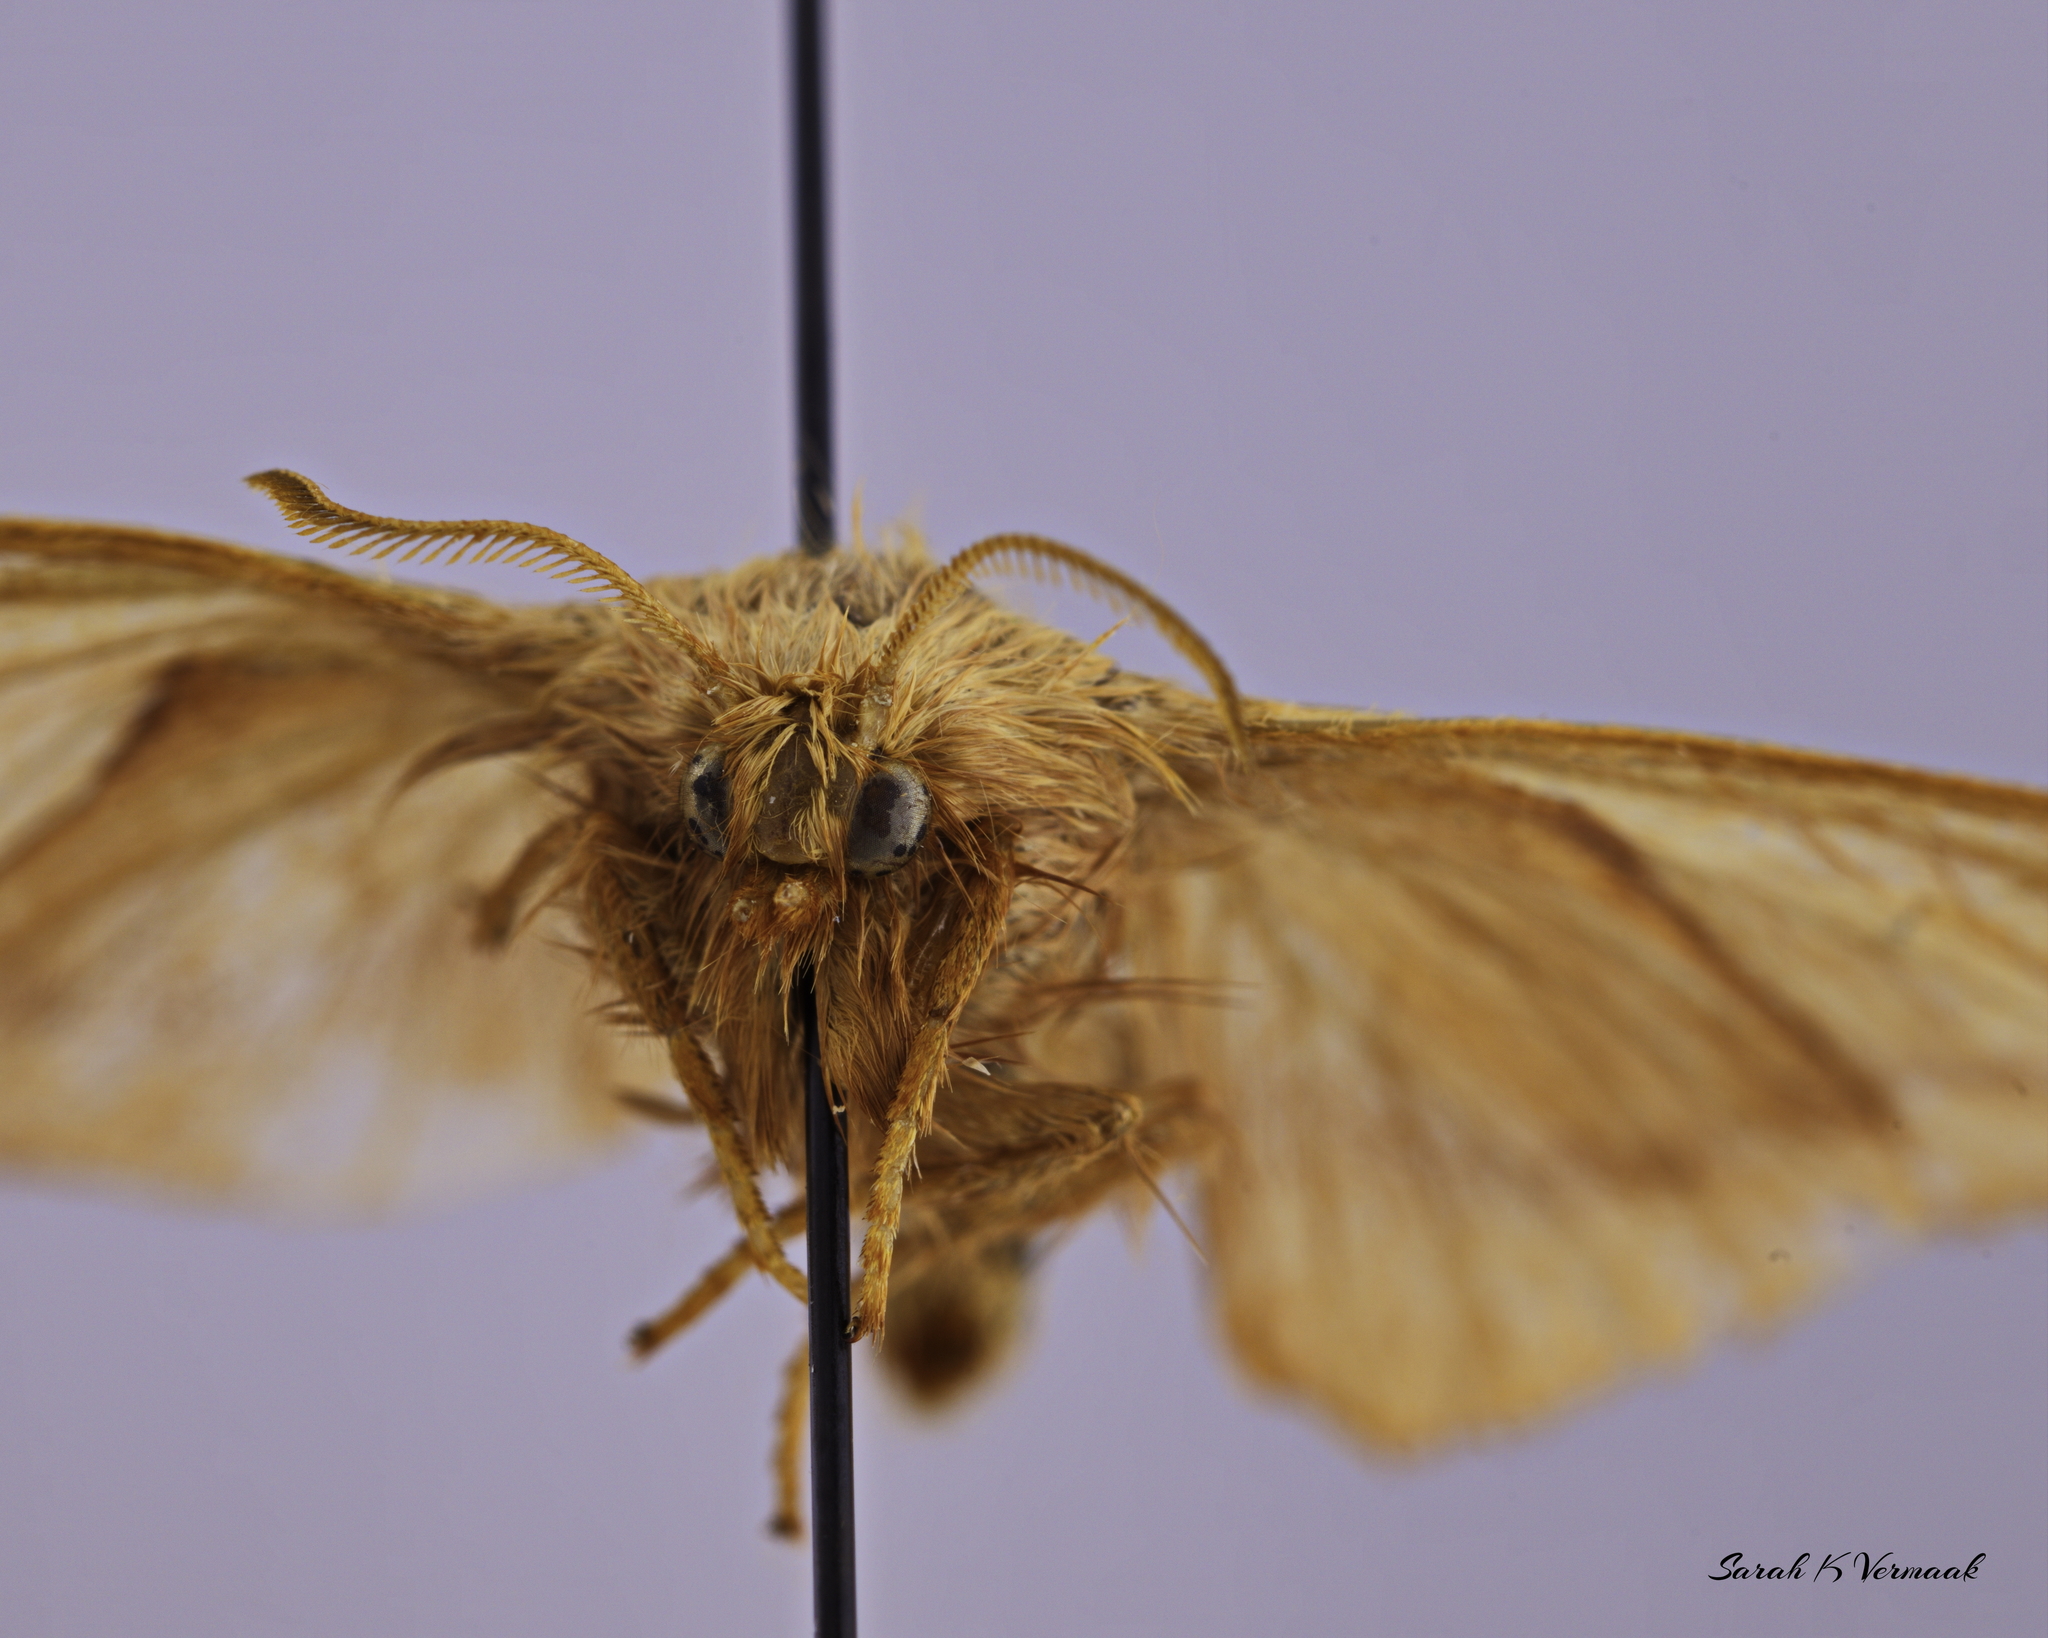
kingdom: Animalia
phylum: Arthropoda
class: Insecta
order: Lepidoptera
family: Lasiocampidae
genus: Malacosoma
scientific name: Malacosoma disstria
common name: Forest tent caterpillar
